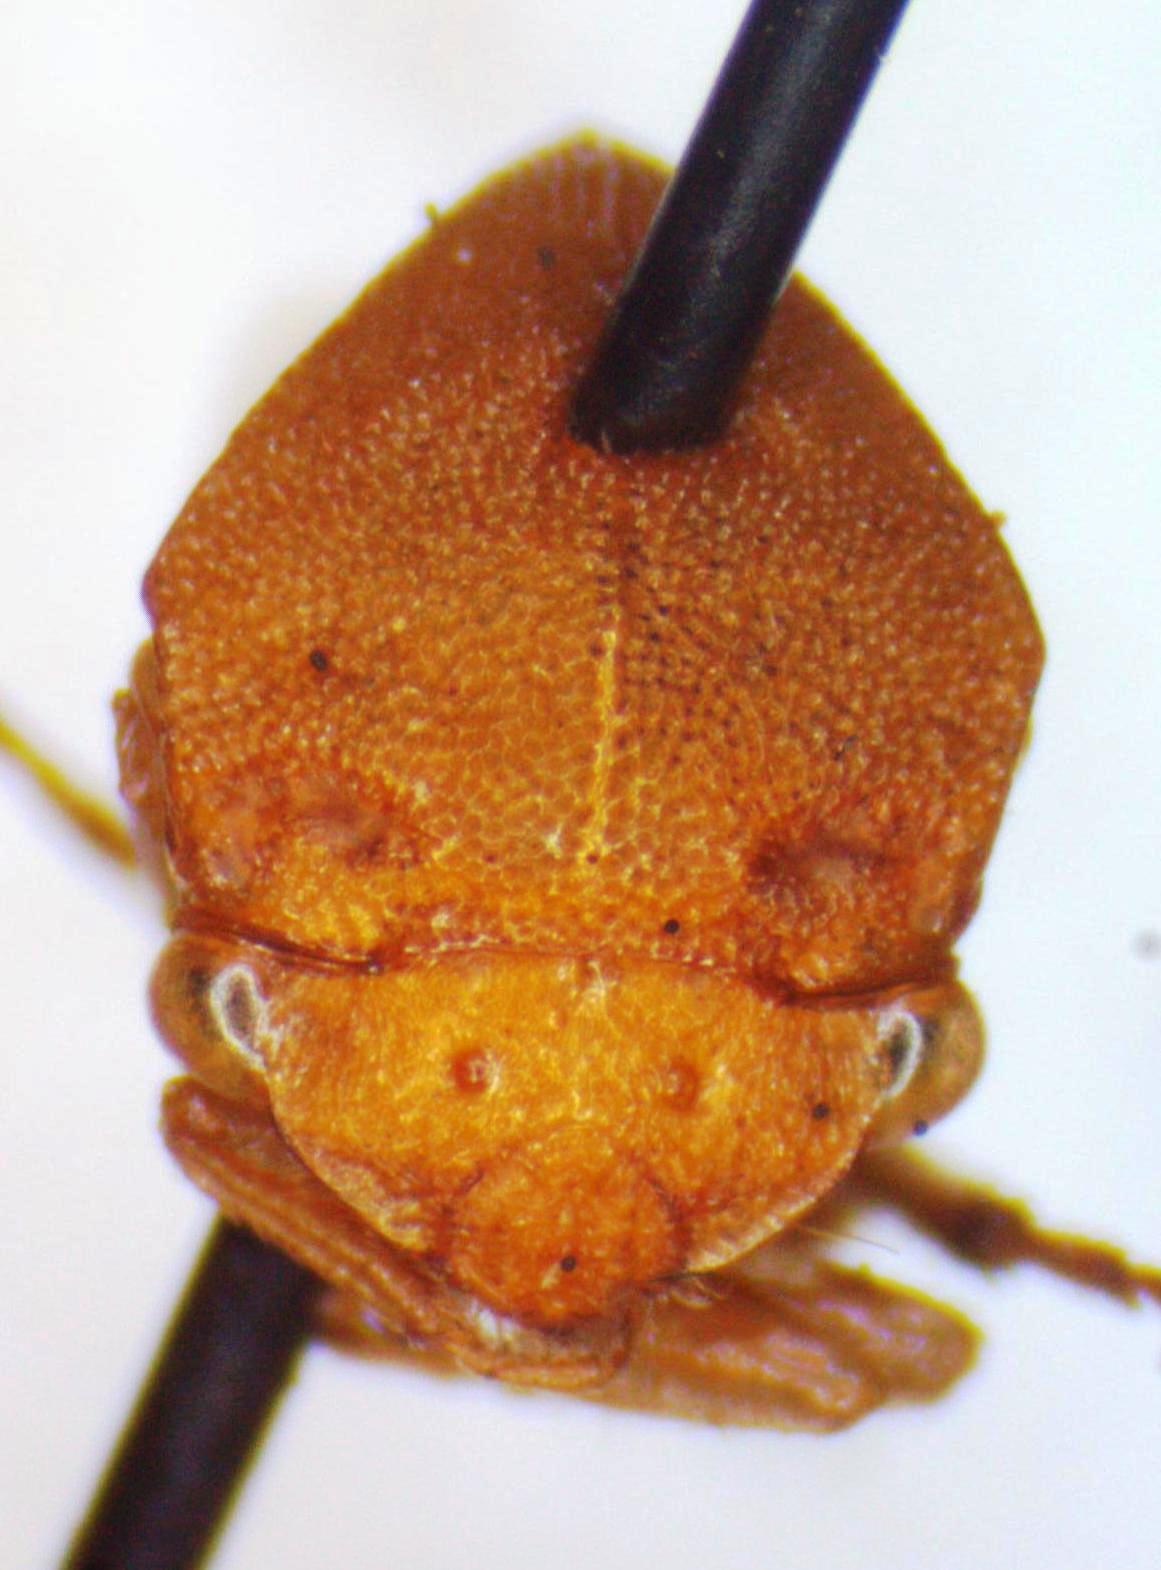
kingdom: Animalia
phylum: Arthropoda
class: Insecta
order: Hemiptera
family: Membracidae
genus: Spissistilus
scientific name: Spissistilus festina
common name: Membracid bug
